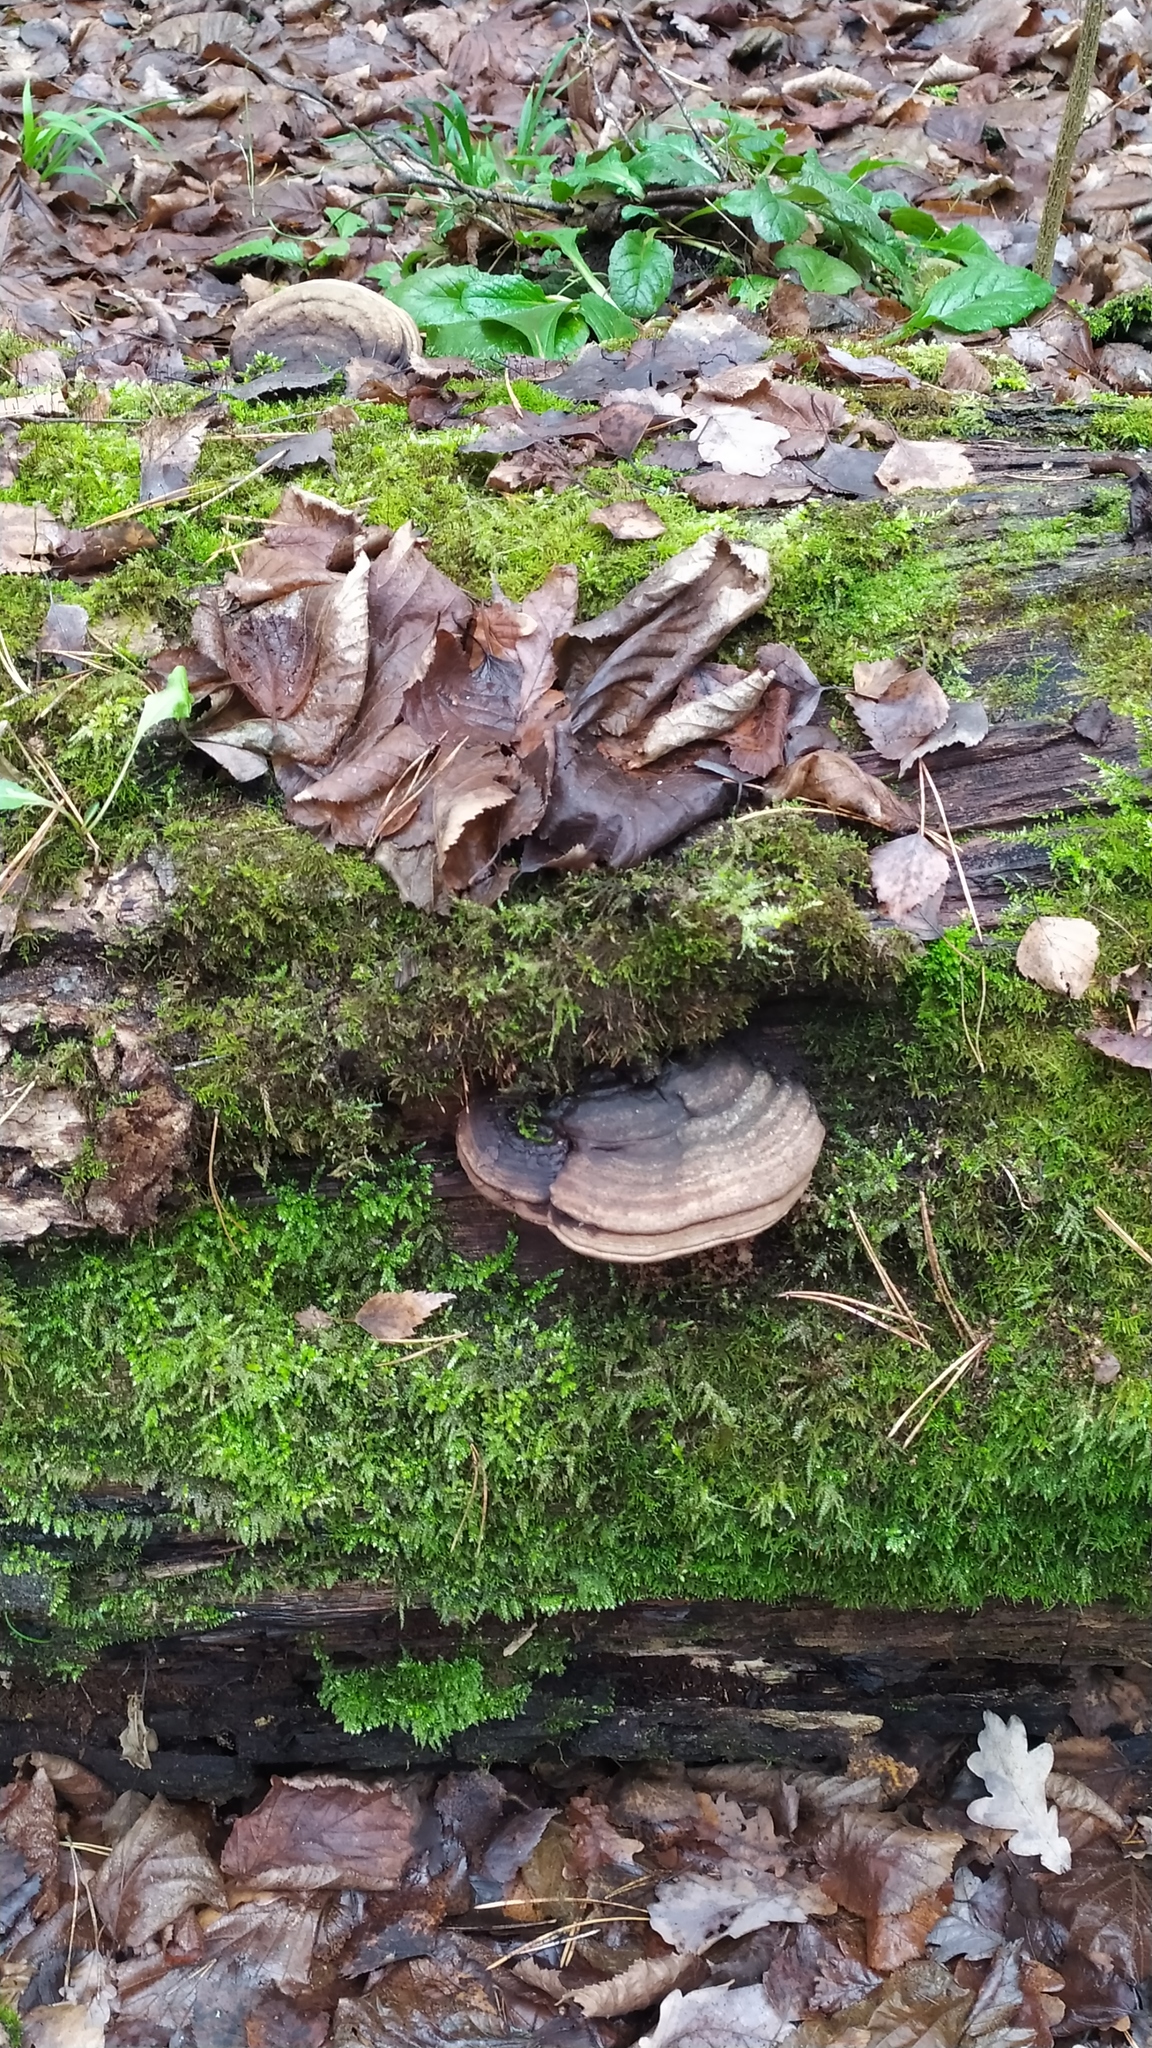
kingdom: Fungi
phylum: Basidiomycota
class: Agaricomycetes
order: Polyporales
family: Polyporaceae
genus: Ganoderma
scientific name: Ganoderma applanatum
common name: Artist's bracket
